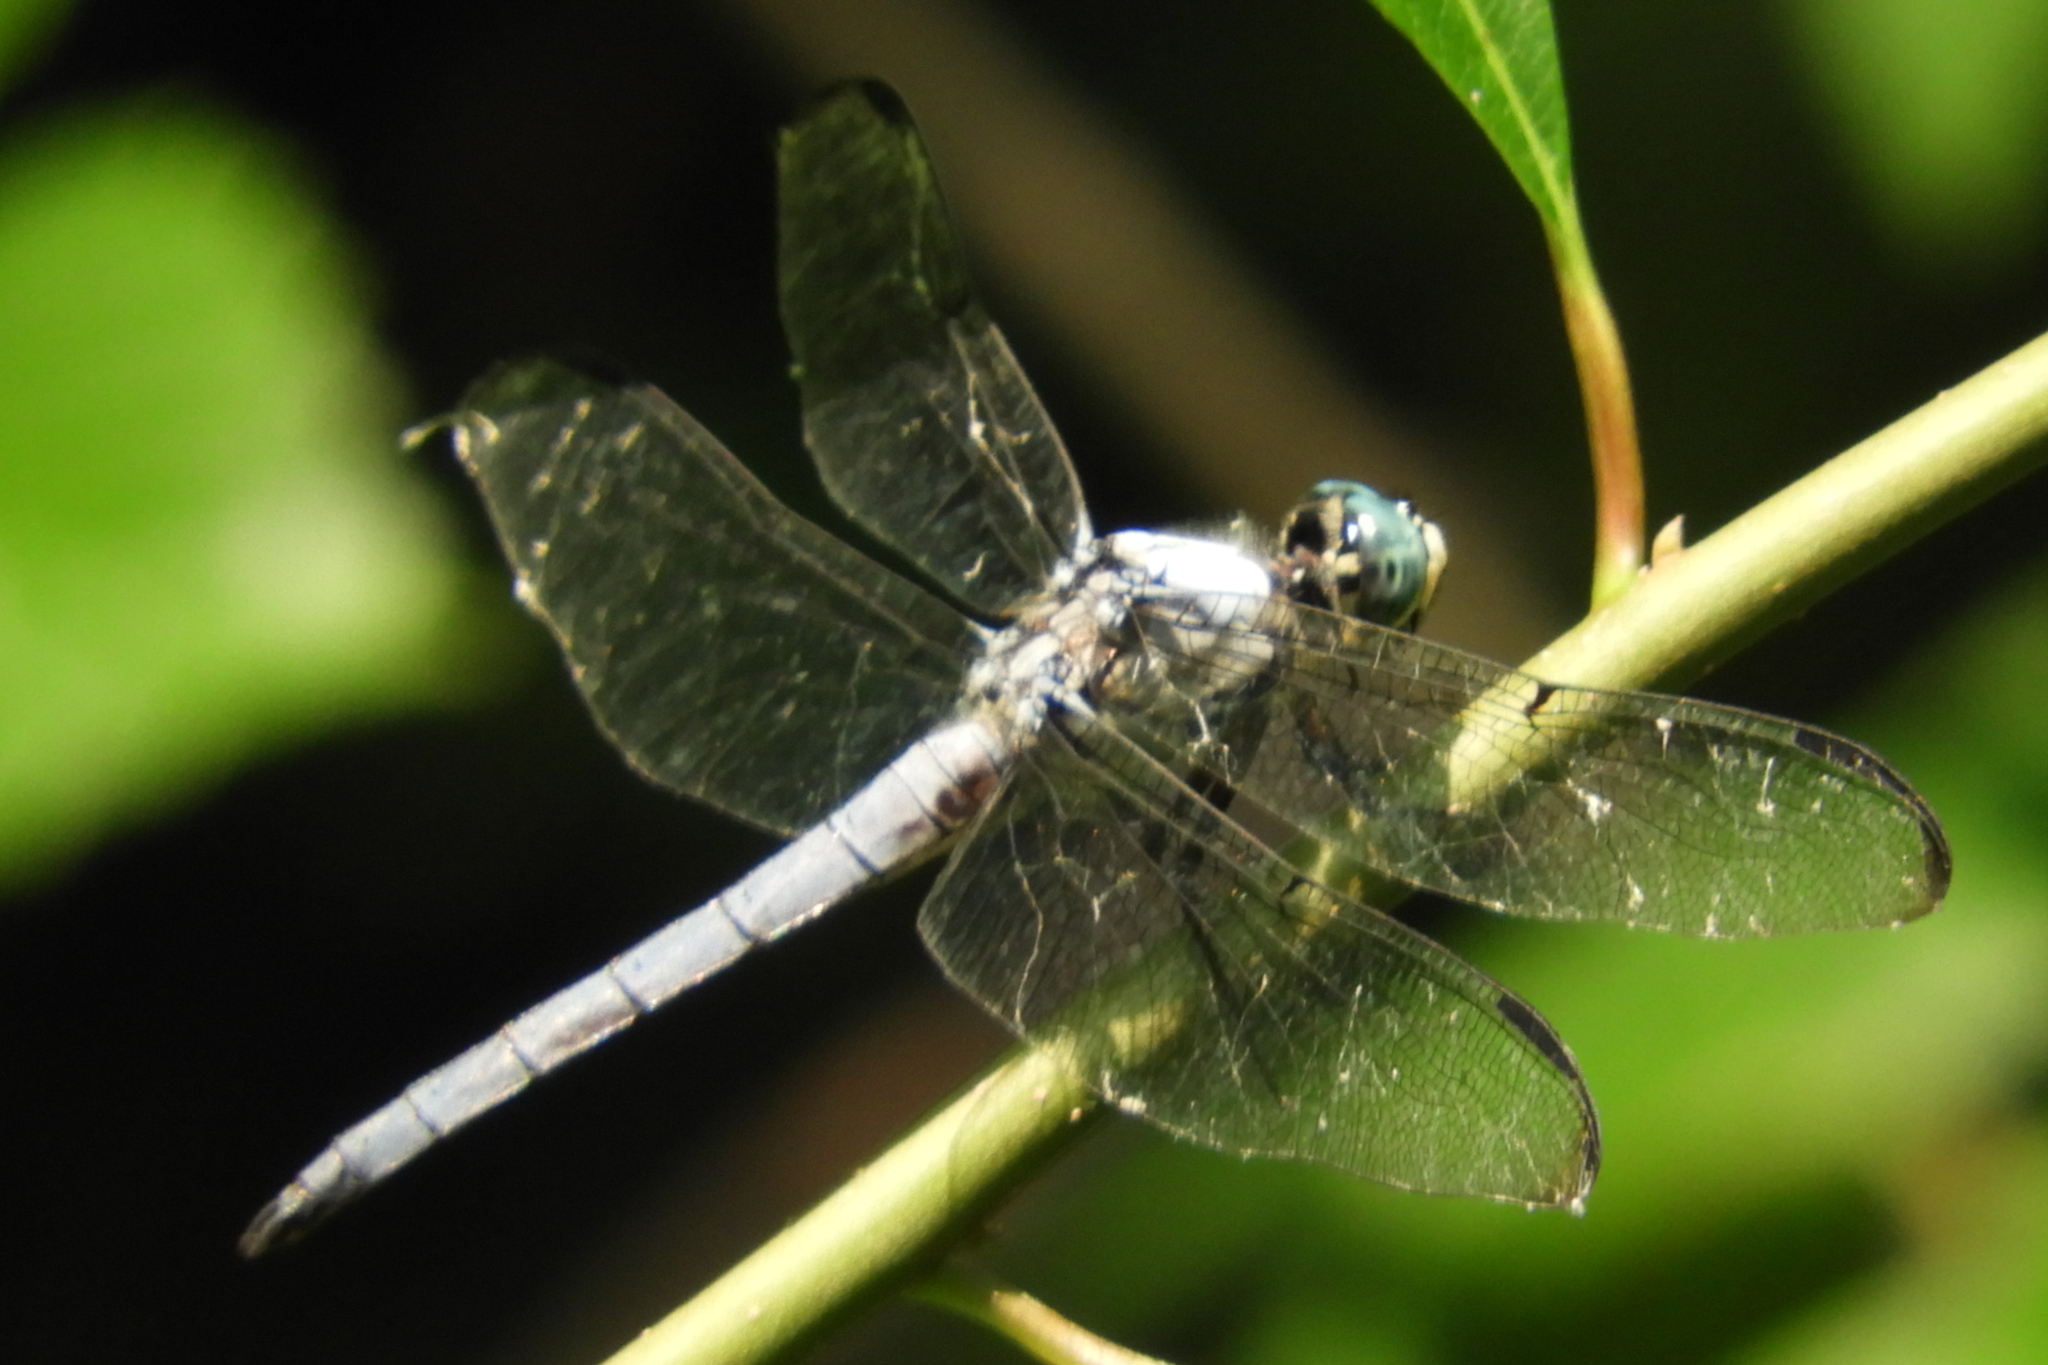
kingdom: Animalia
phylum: Arthropoda
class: Insecta
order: Odonata
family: Libellulidae
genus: Libellula
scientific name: Libellula vibrans
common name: Great blue skimmer
